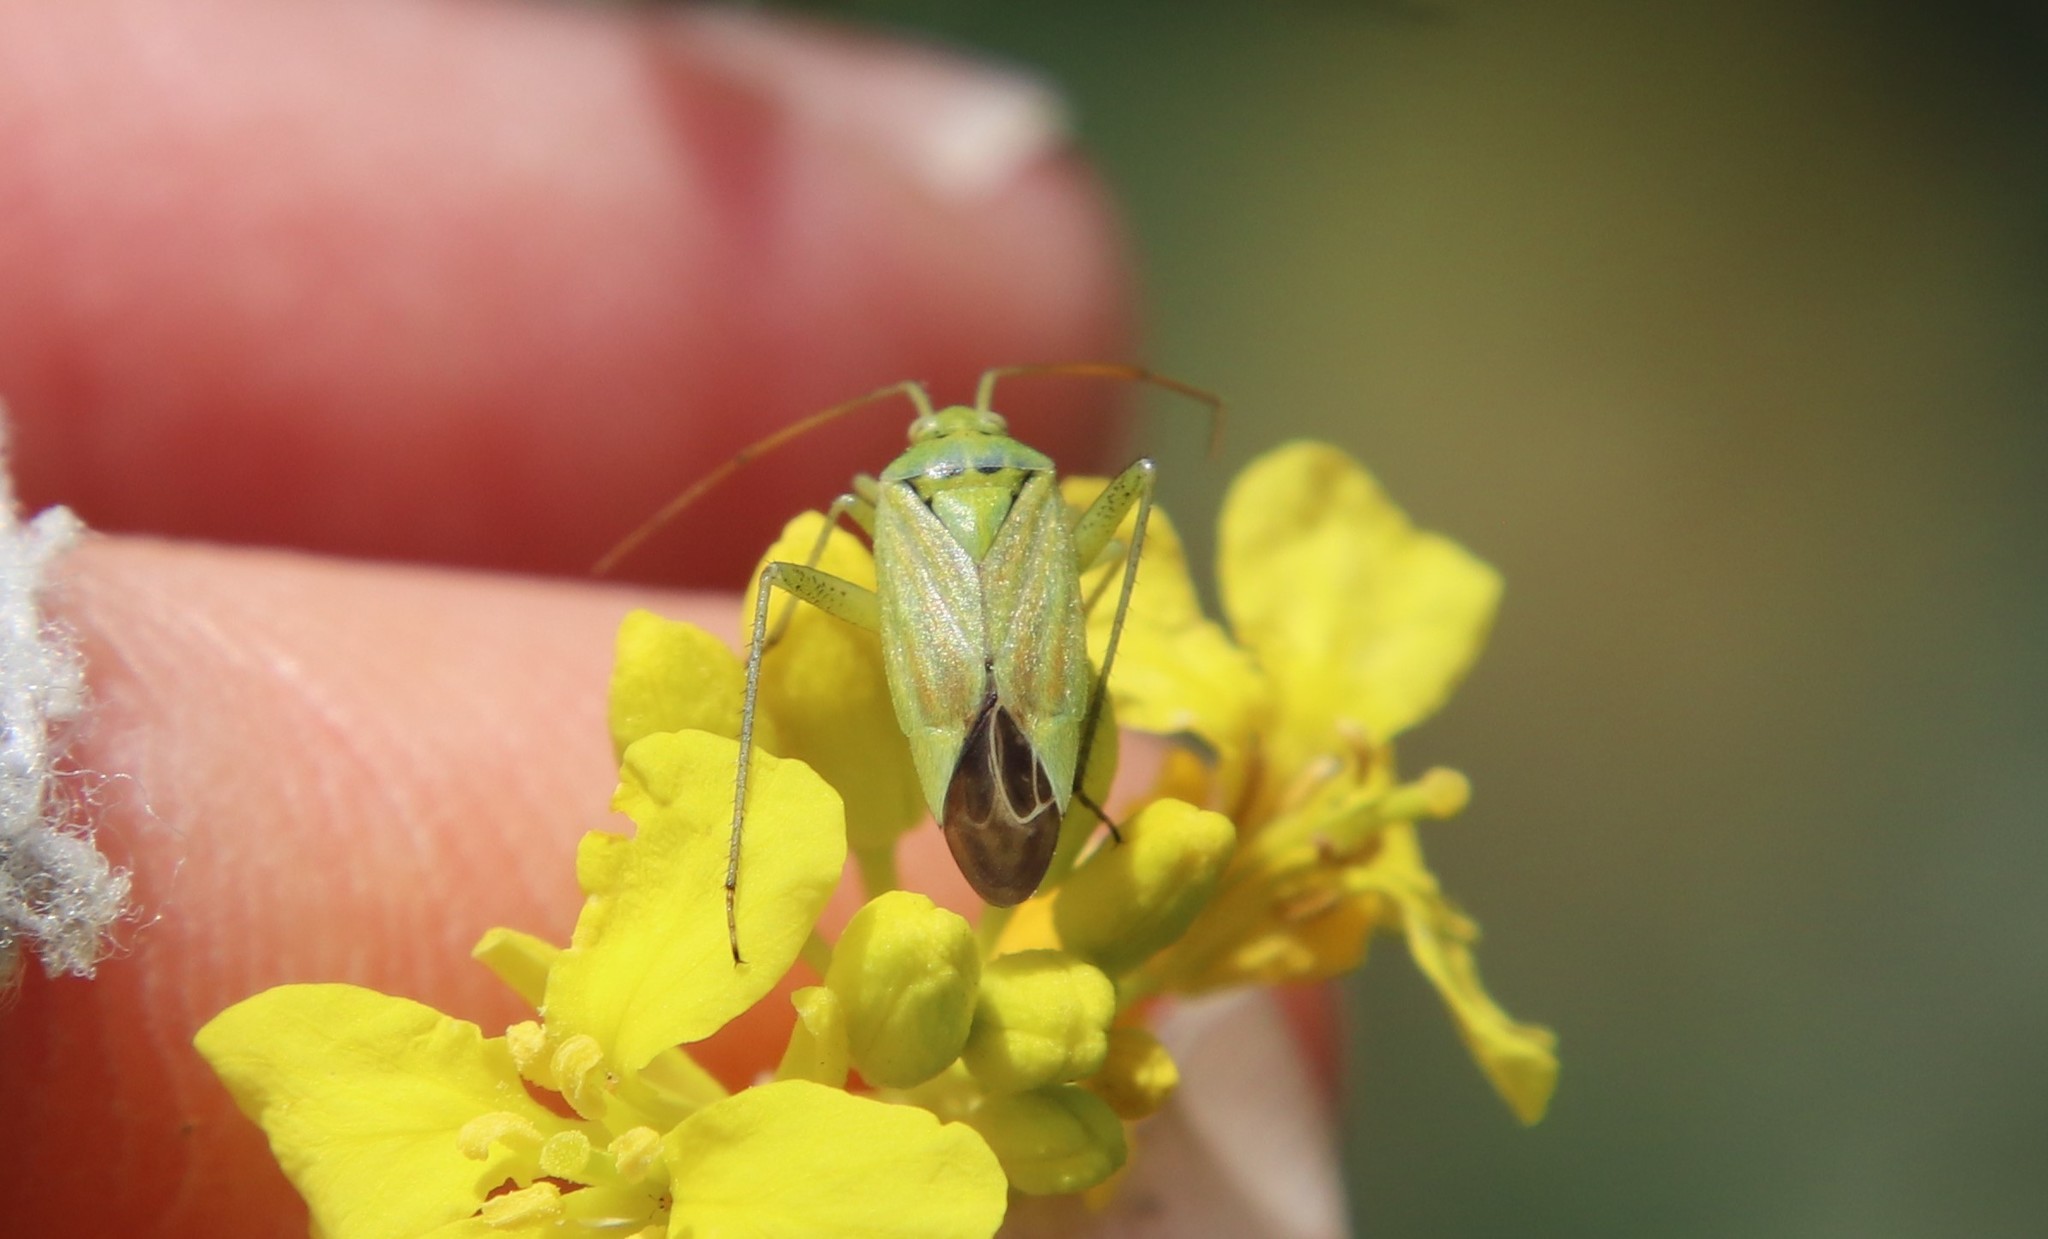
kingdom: Animalia
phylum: Arthropoda
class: Insecta
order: Hemiptera
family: Miridae
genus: Closterotomus
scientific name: Closterotomus norvegicus
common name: Plant bug
